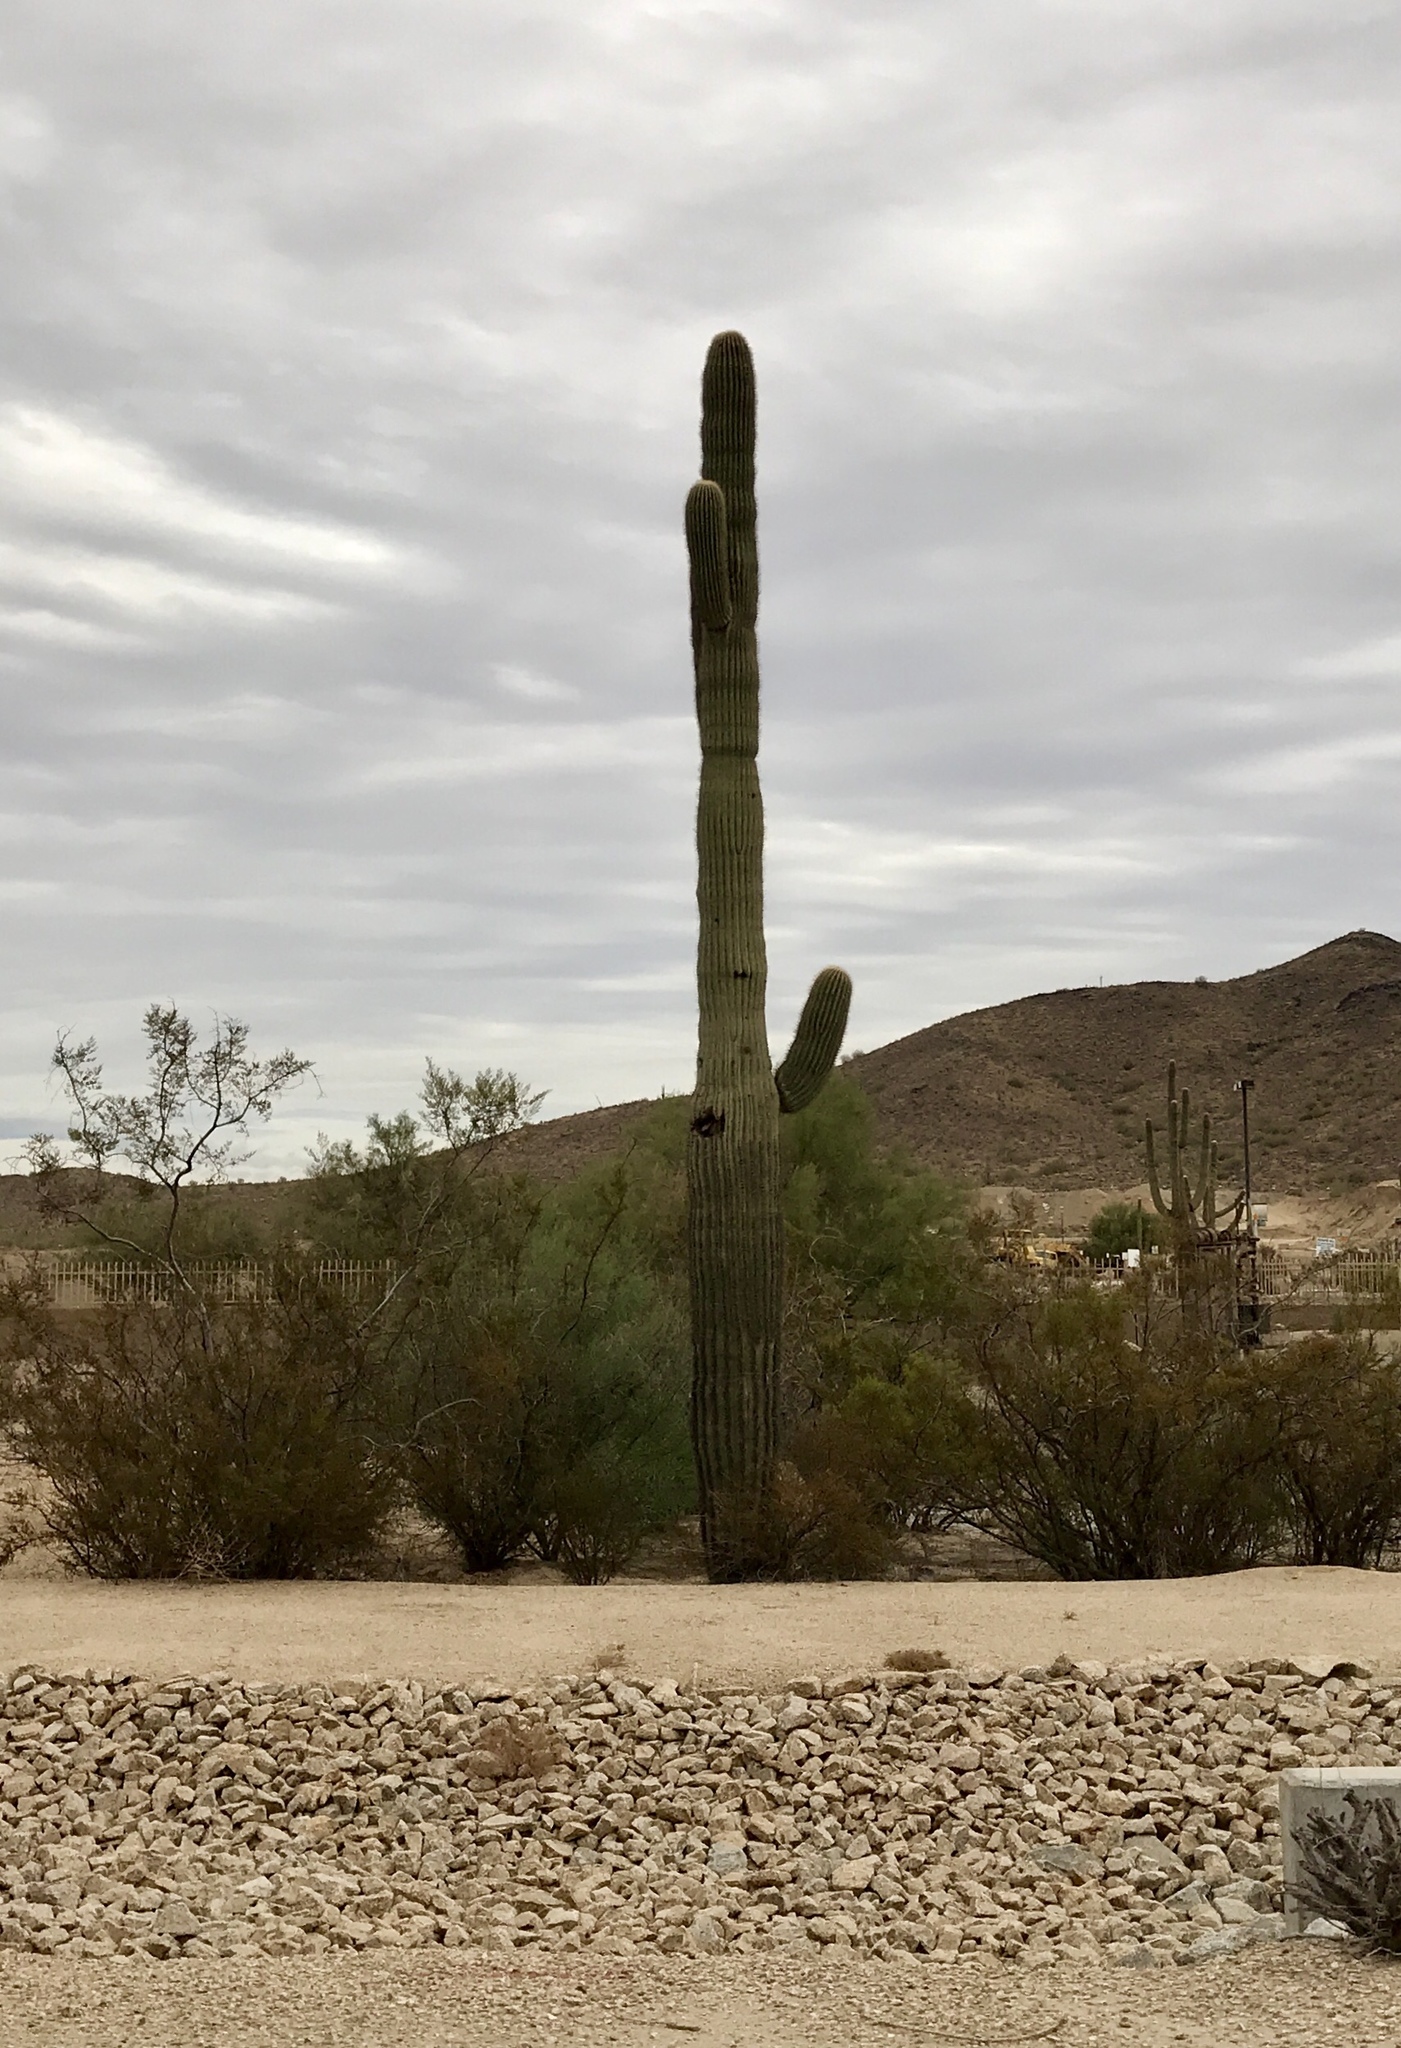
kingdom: Plantae
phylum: Tracheophyta
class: Magnoliopsida
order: Caryophyllales
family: Cactaceae
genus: Carnegiea
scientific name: Carnegiea gigantea
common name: Saguaro
